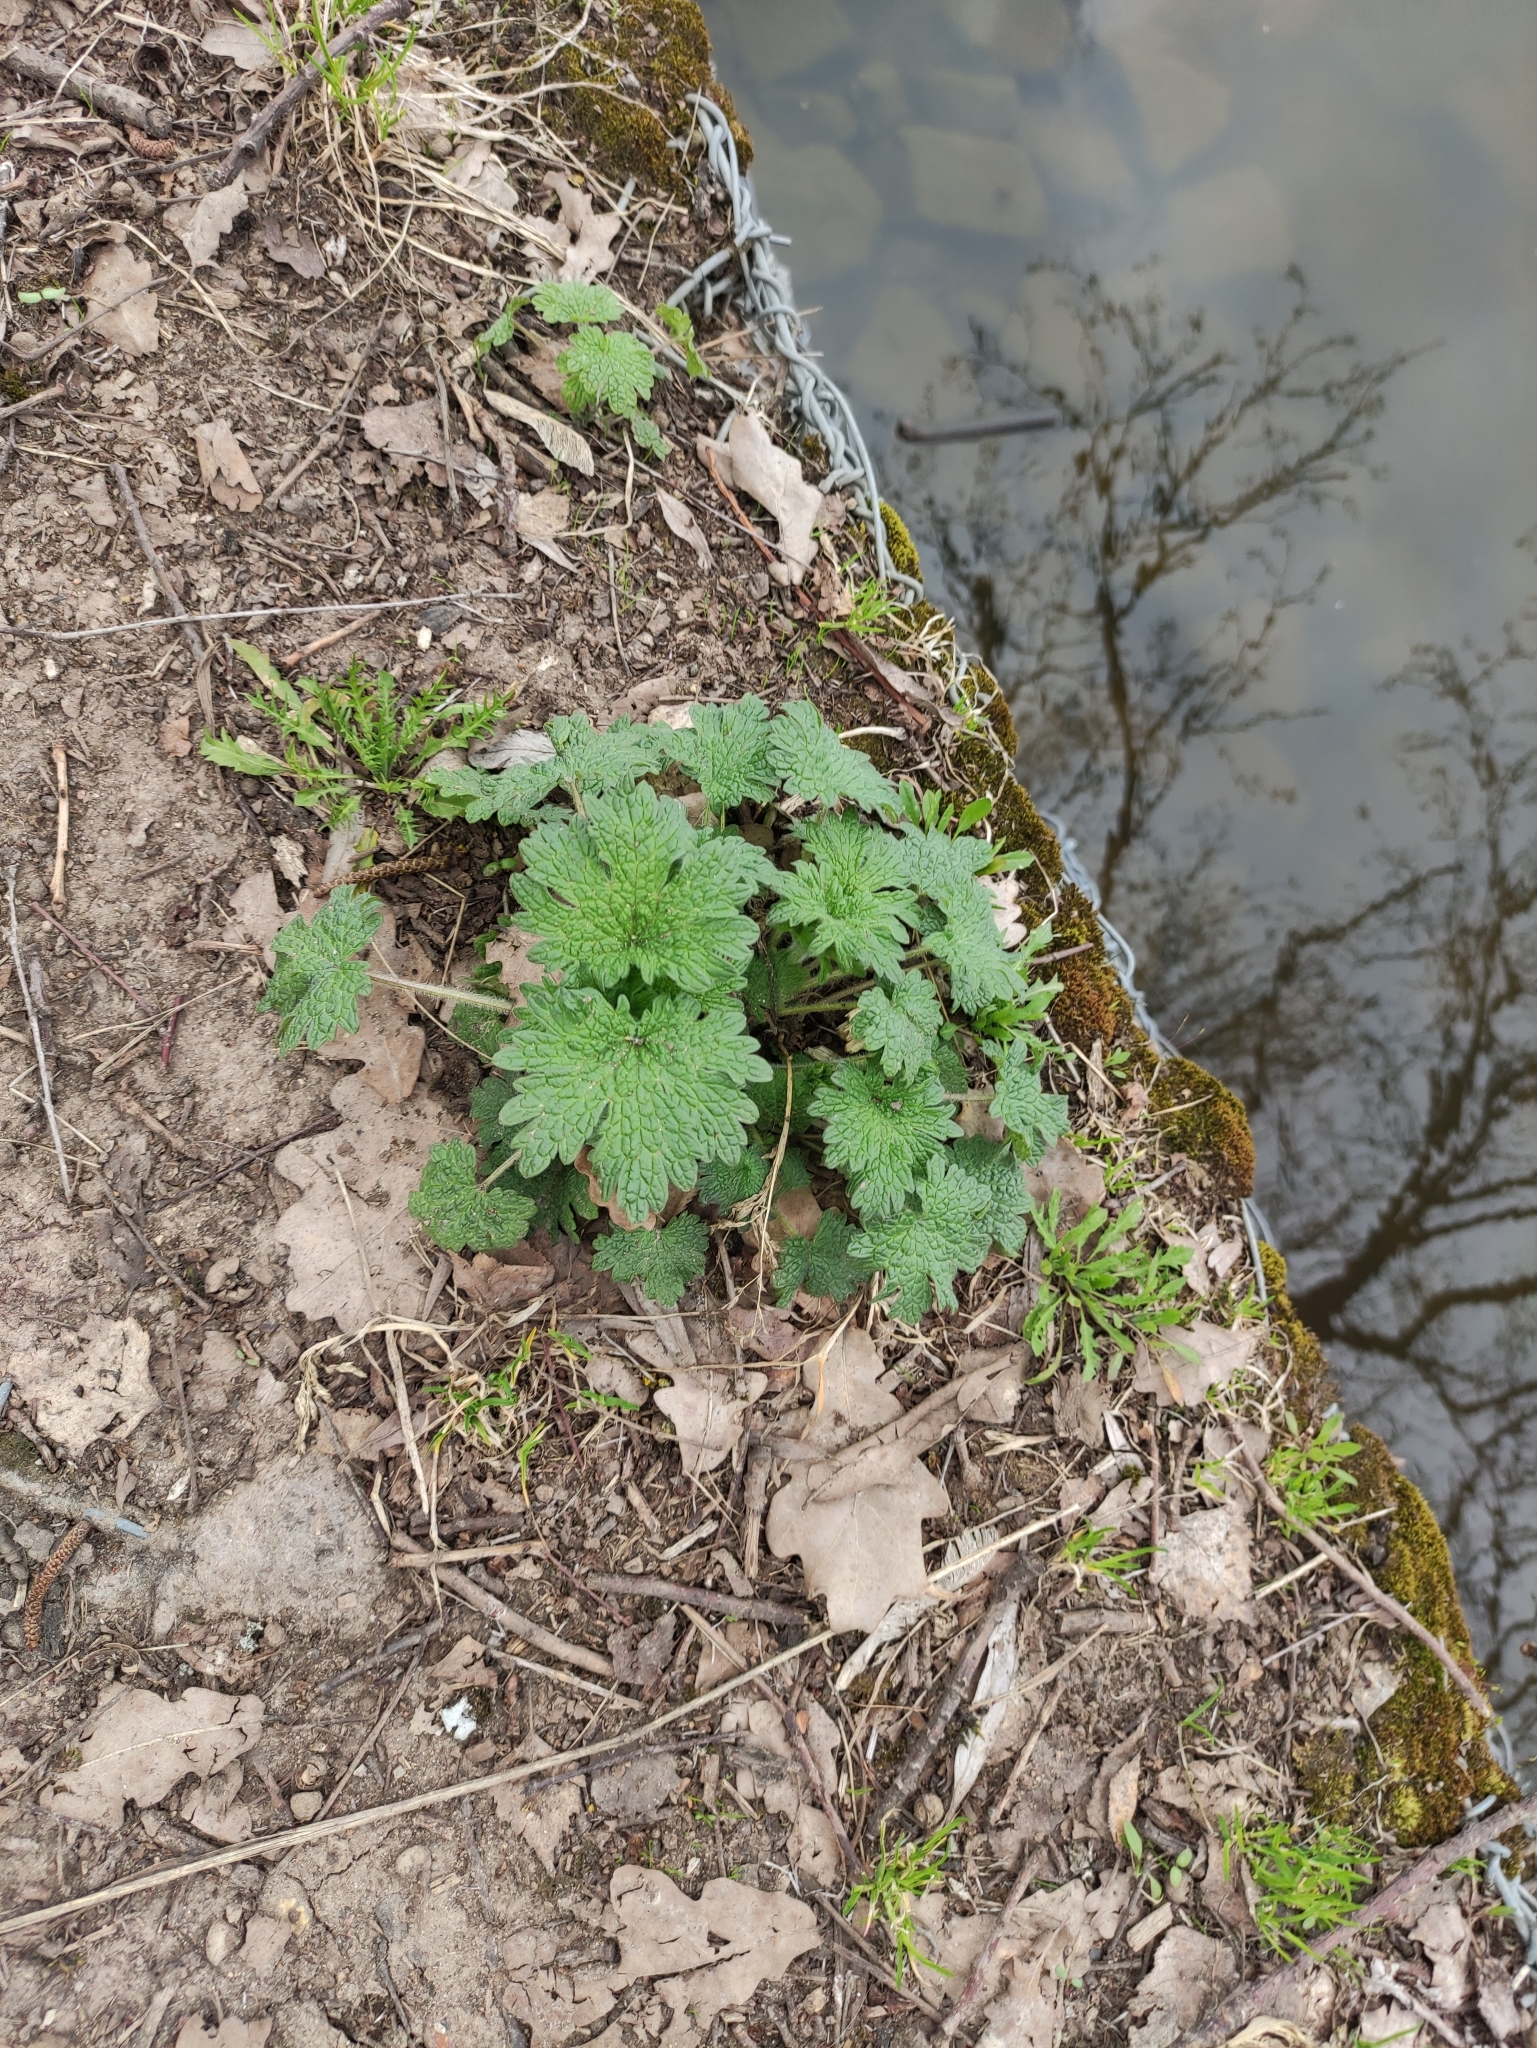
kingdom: Plantae
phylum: Tracheophyta
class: Magnoliopsida
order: Lamiales
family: Lamiaceae
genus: Leonurus
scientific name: Leonurus quinquelobatus
